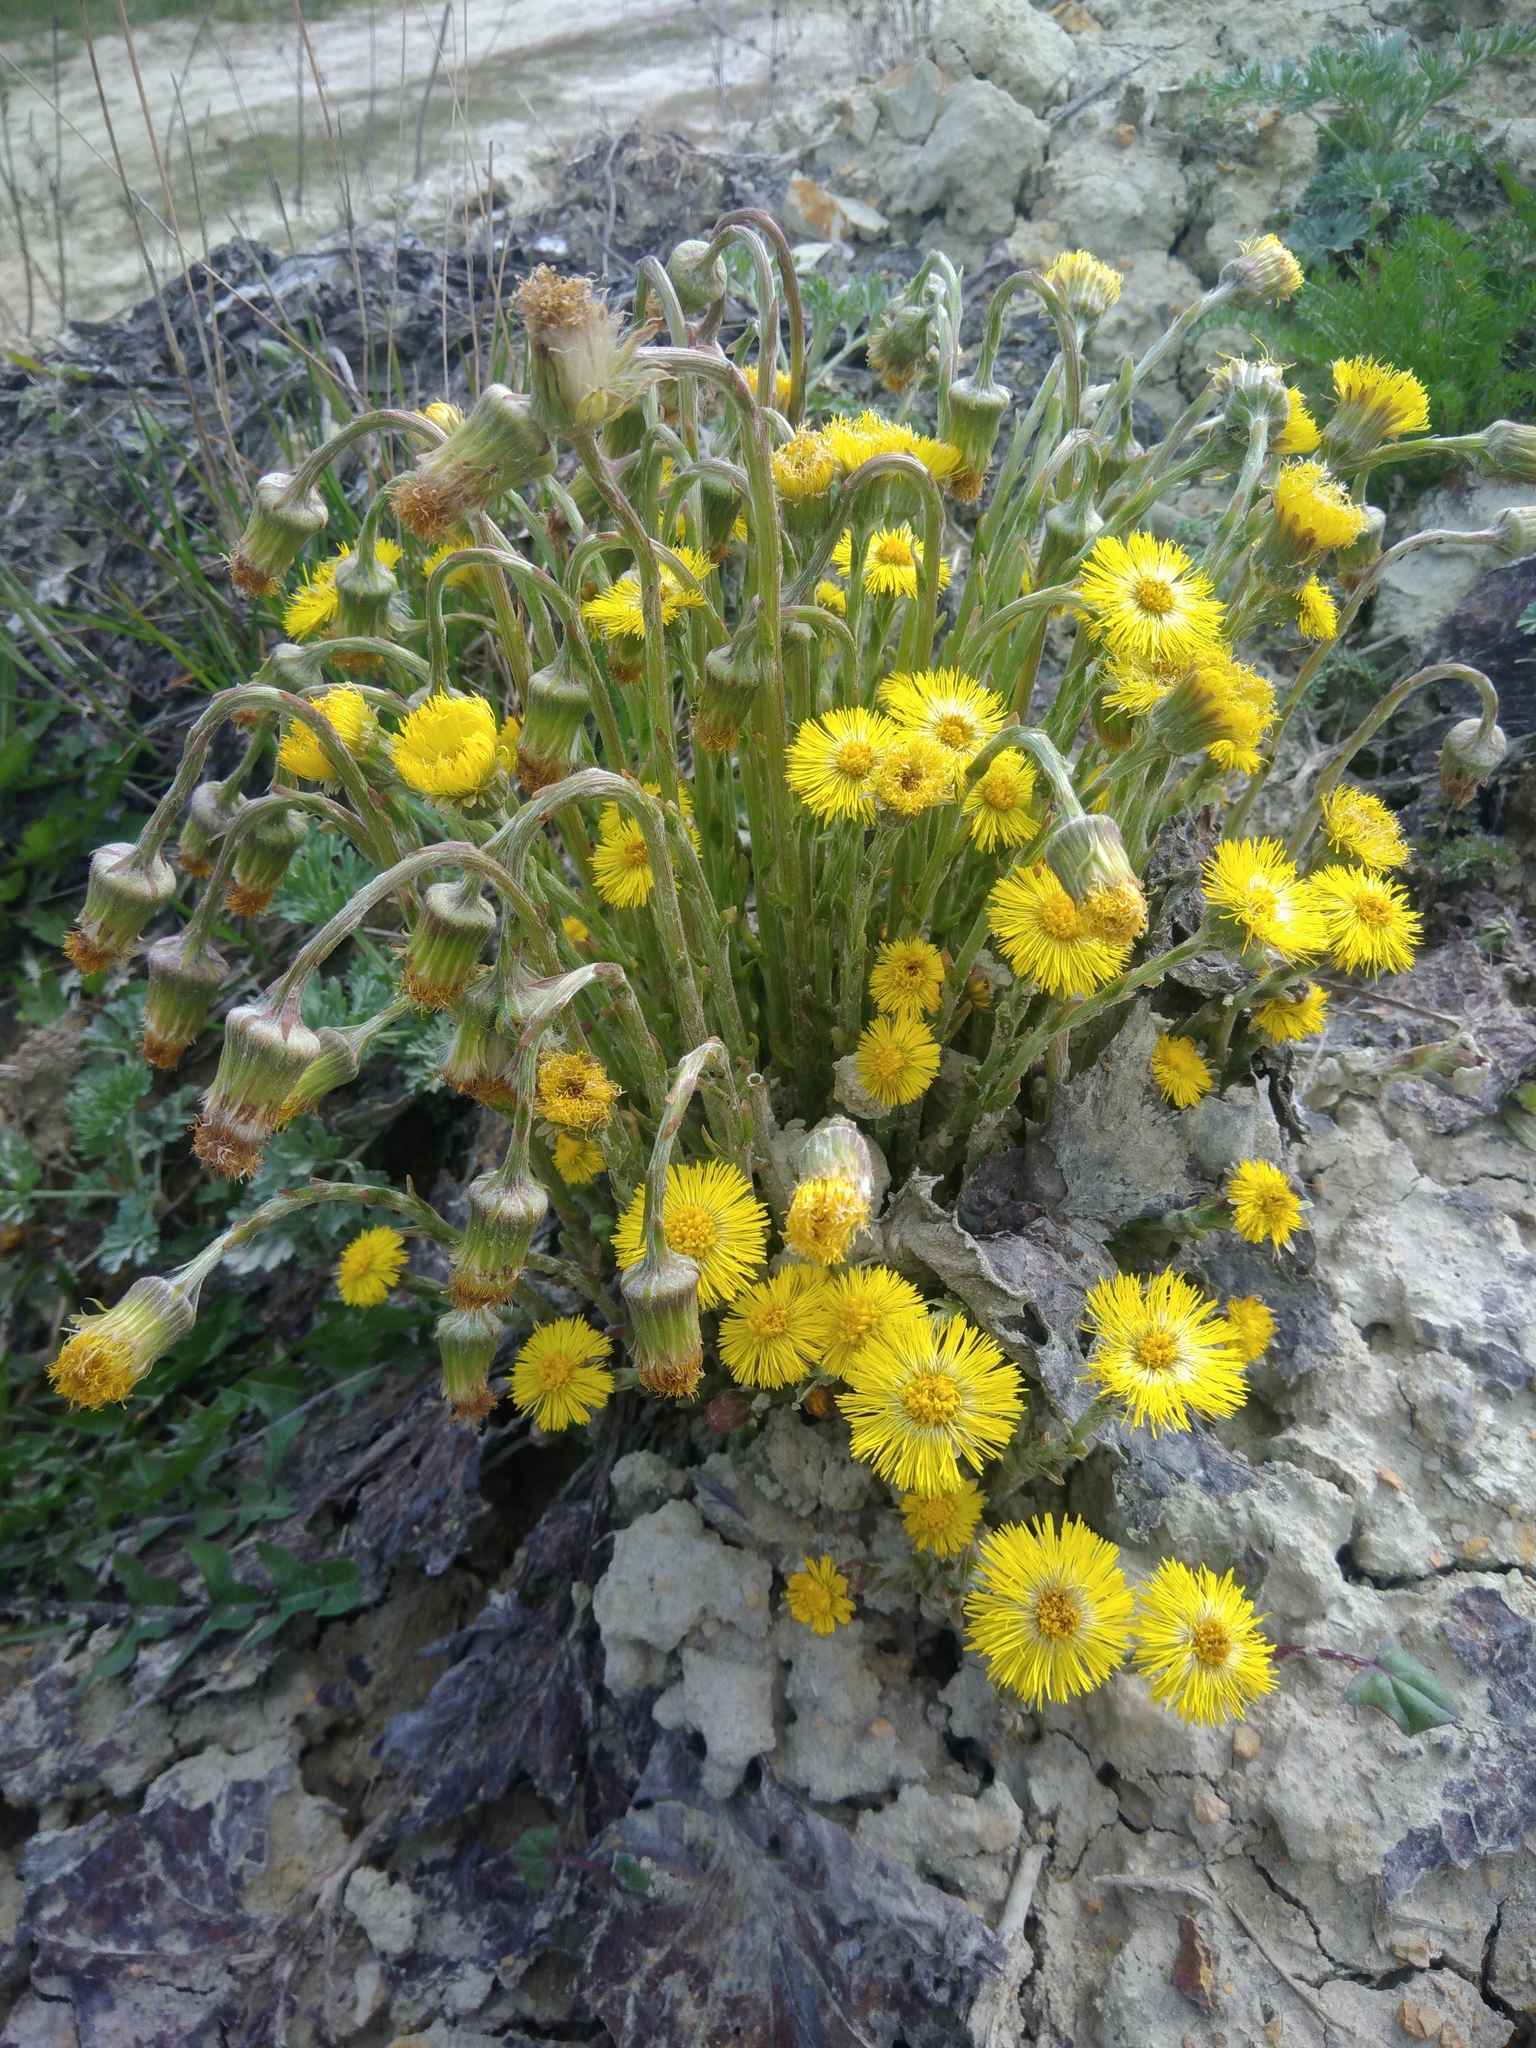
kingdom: Plantae
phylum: Tracheophyta
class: Magnoliopsida
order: Asterales
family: Asteraceae
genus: Tussilago
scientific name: Tussilago farfara
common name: Coltsfoot
